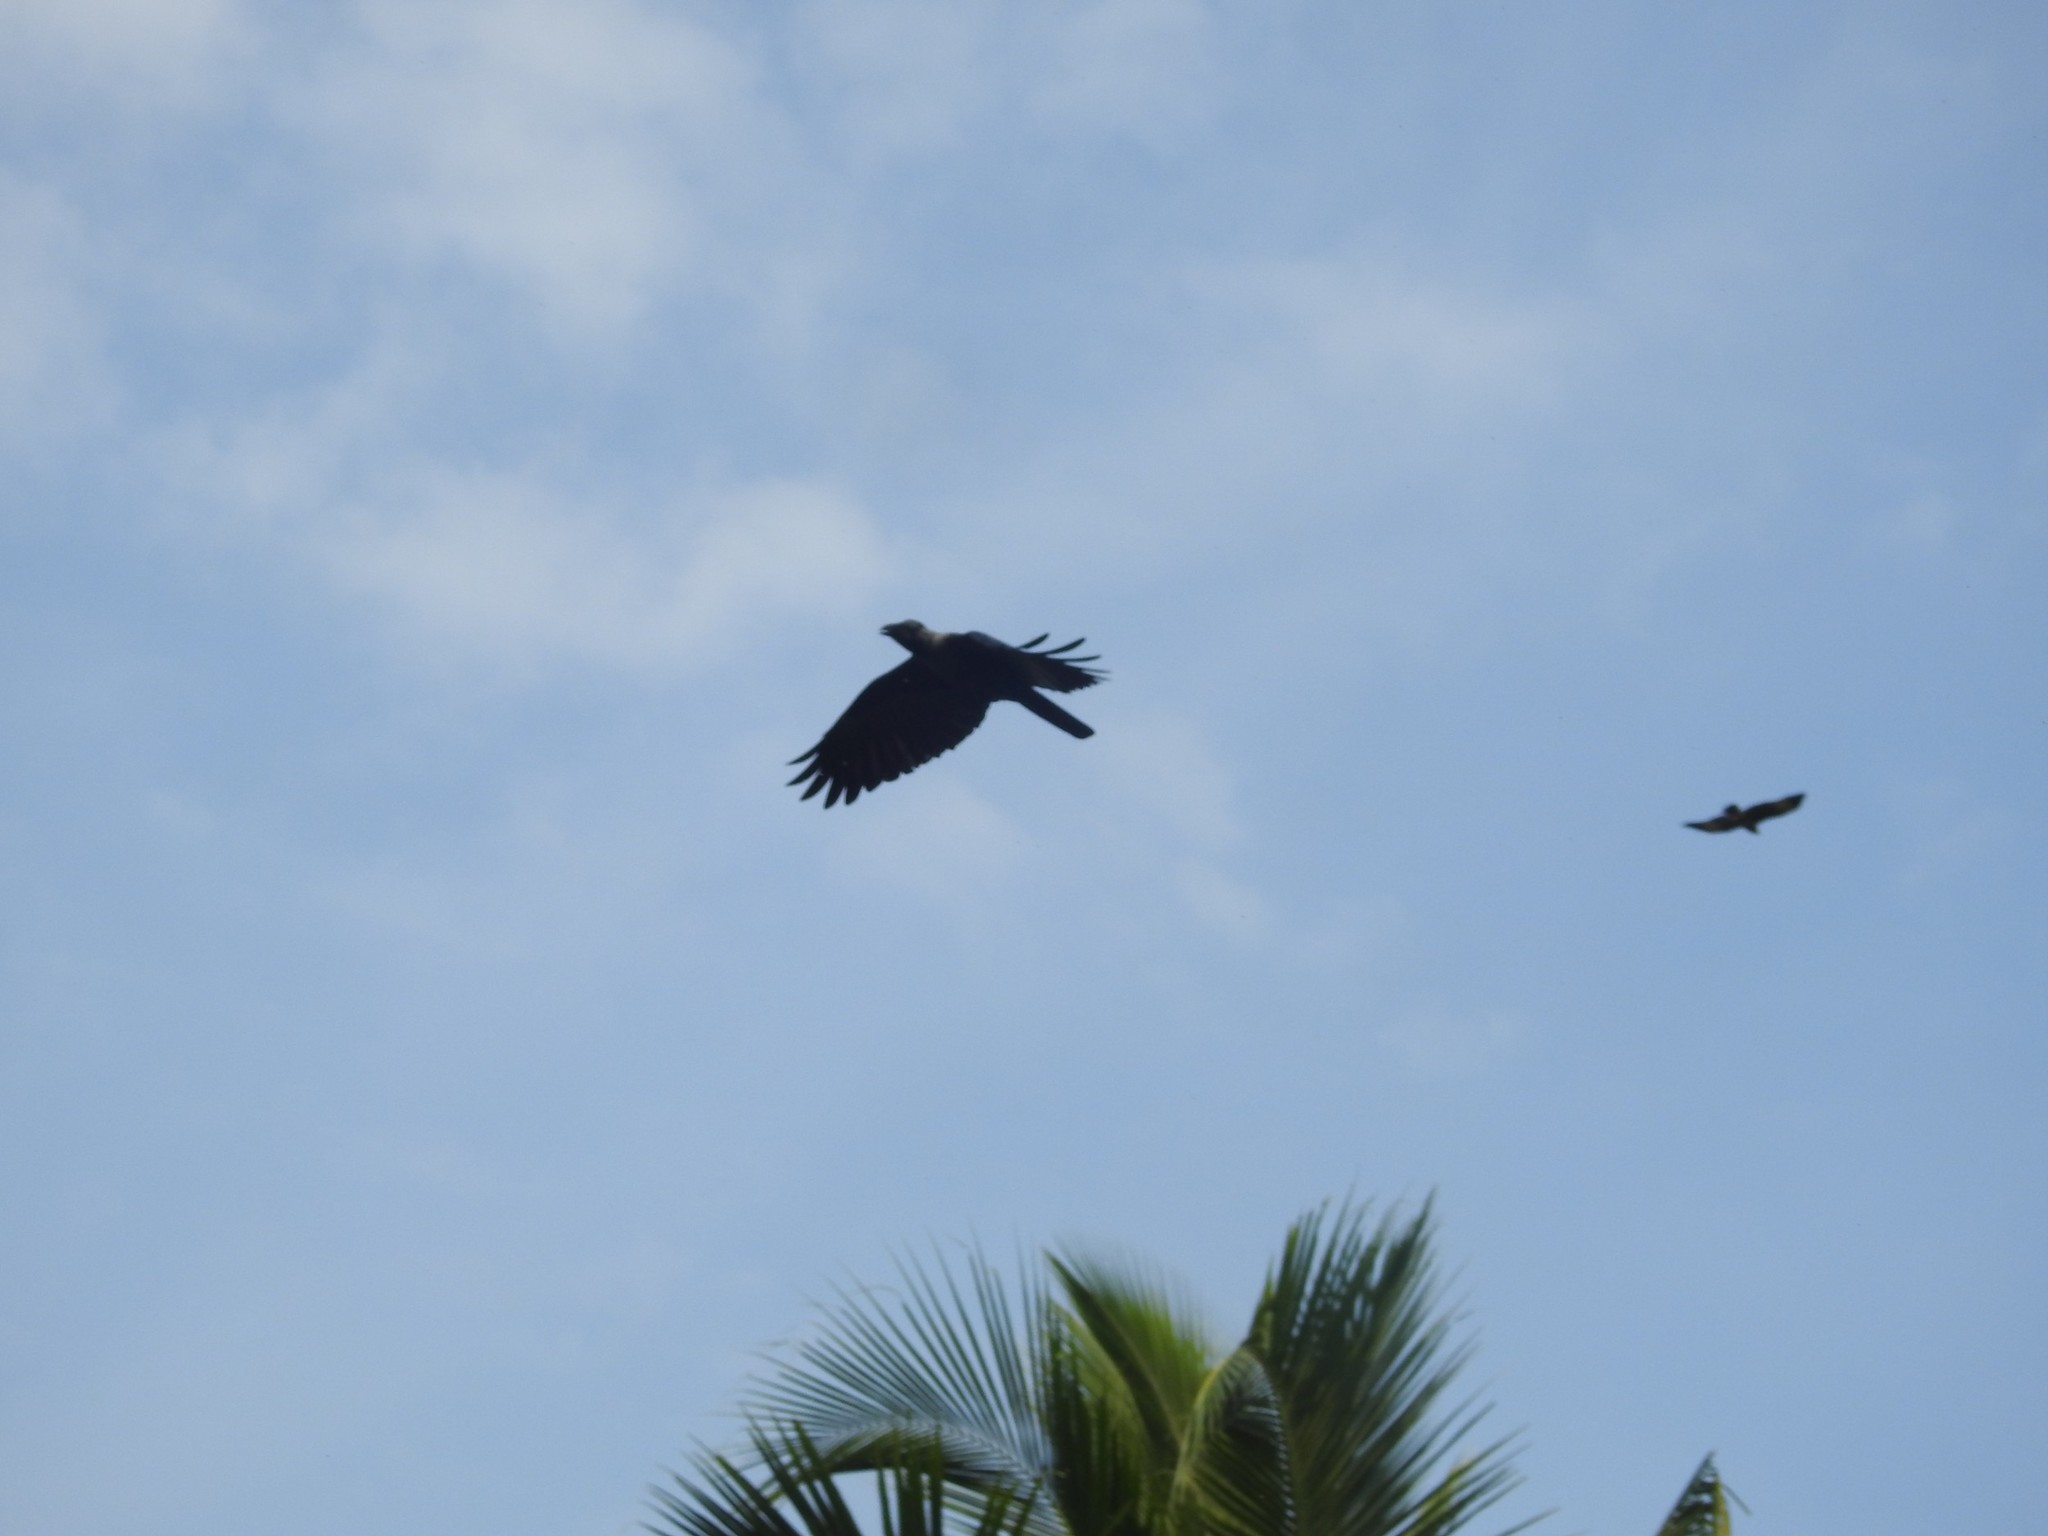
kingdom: Animalia
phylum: Chordata
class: Aves
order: Passeriformes
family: Corvidae
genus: Corvus
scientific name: Corvus splendens
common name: House crow
